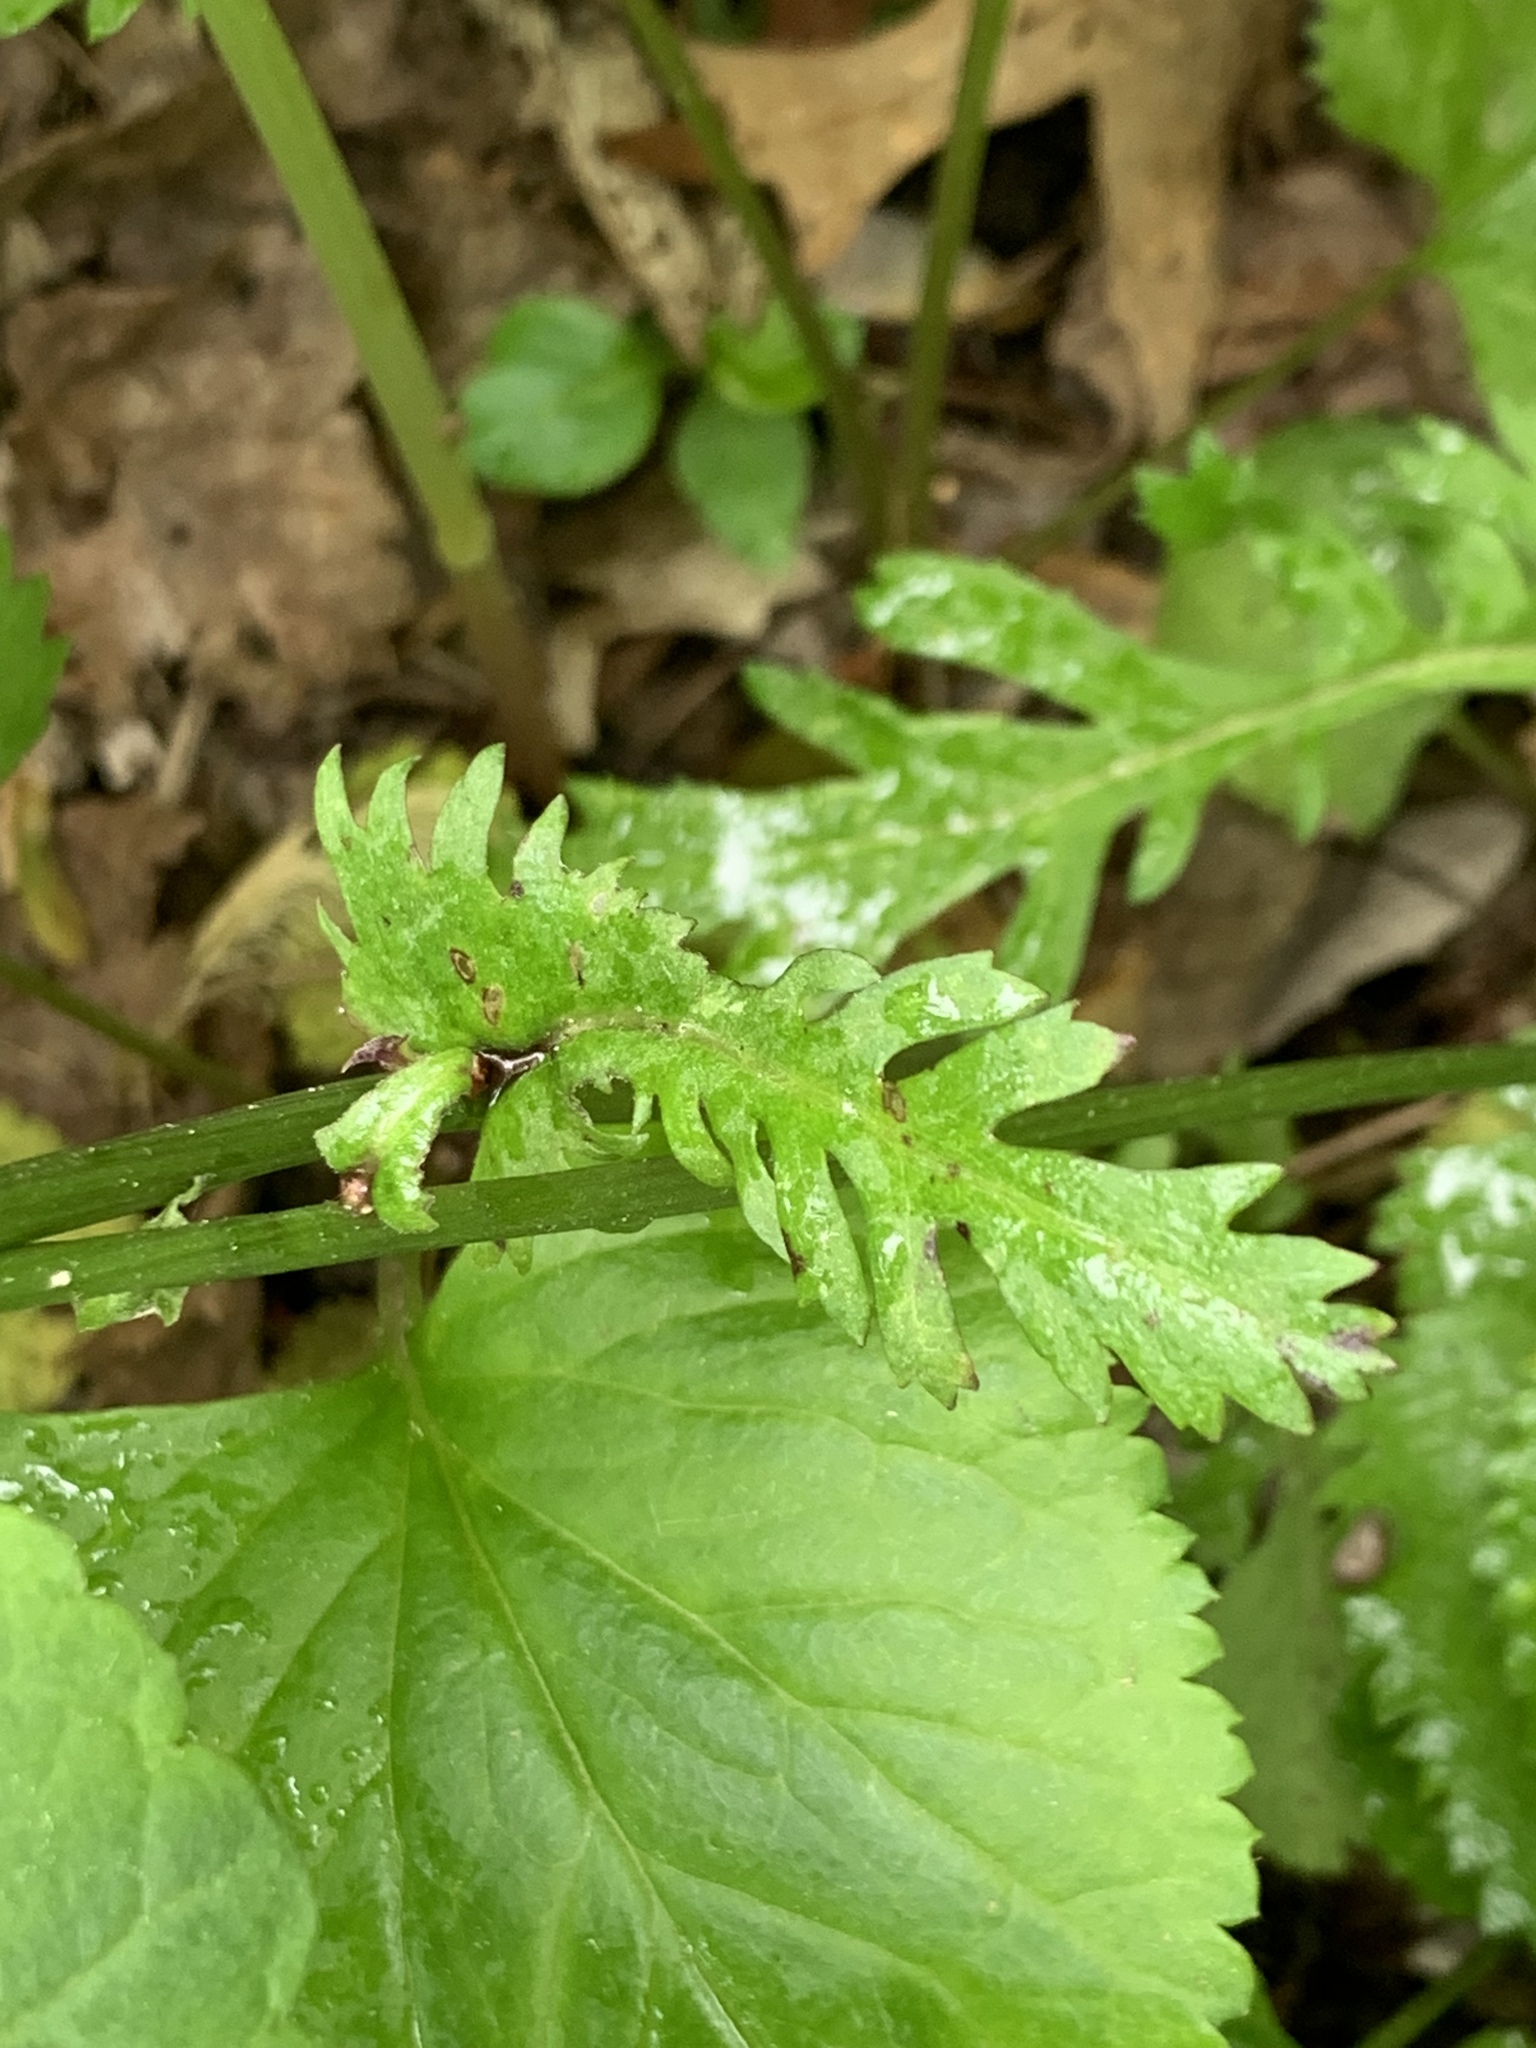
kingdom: Plantae
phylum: Tracheophyta
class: Magnoliopsida
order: Asterales
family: Asteraceae
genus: Packera
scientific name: Packera aurea
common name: Golden groundsel
